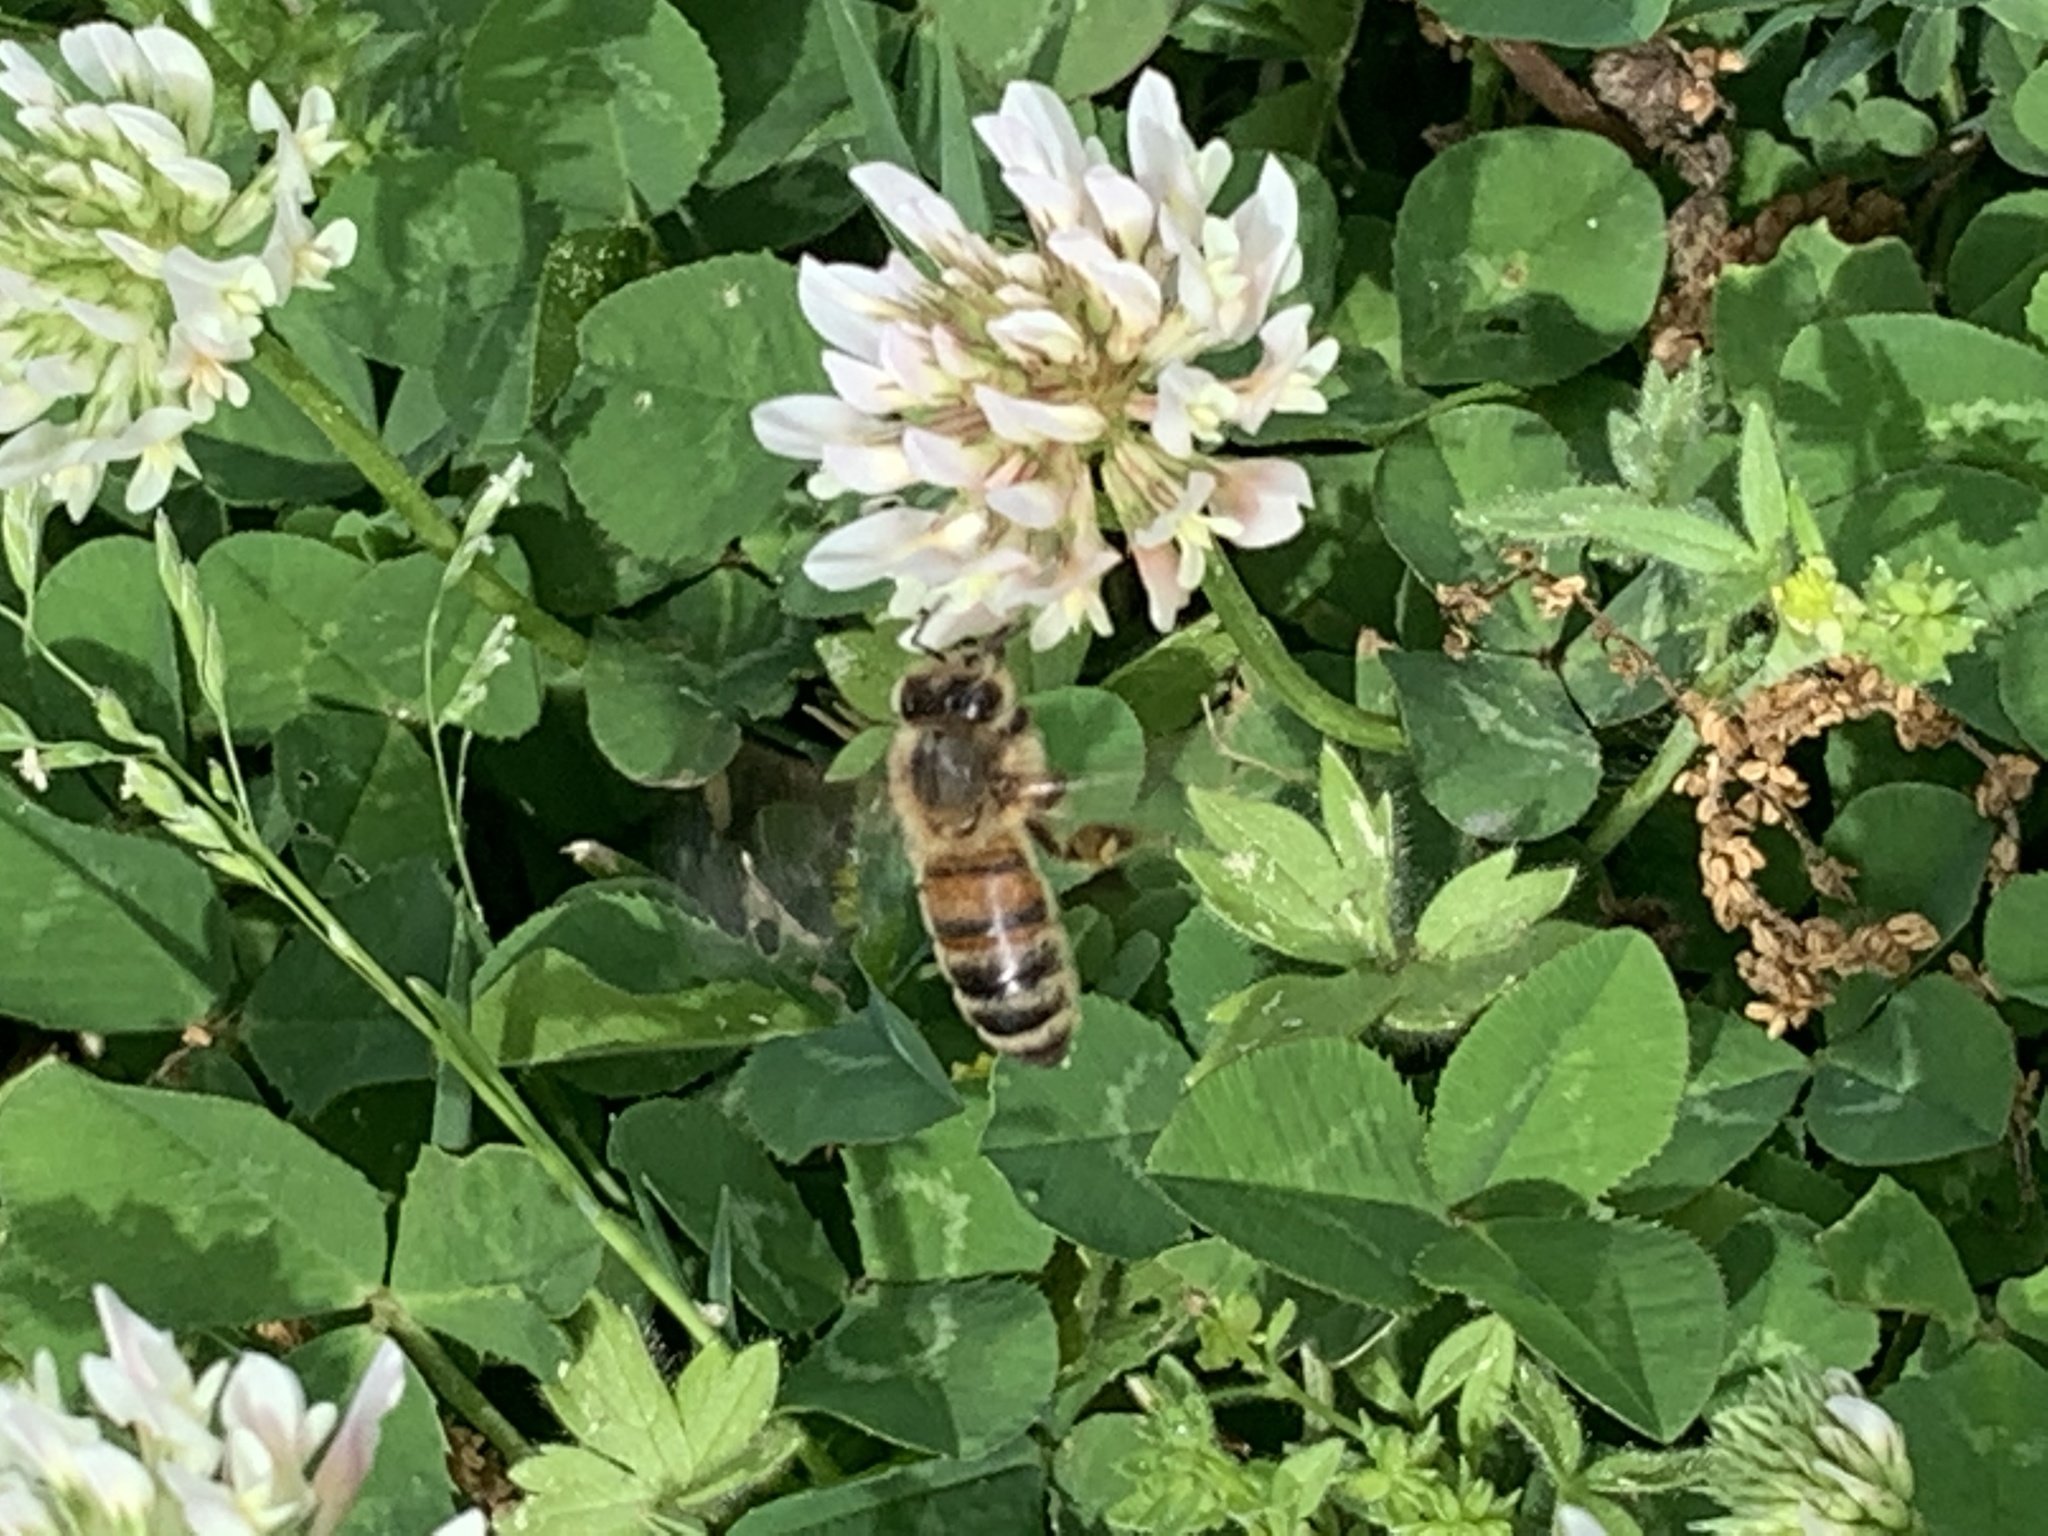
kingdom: Animalia
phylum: Arthropoda
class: Insecta
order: Hymenoptera
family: Apidae
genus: Apis
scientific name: Apis mellifera
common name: Honey bee
